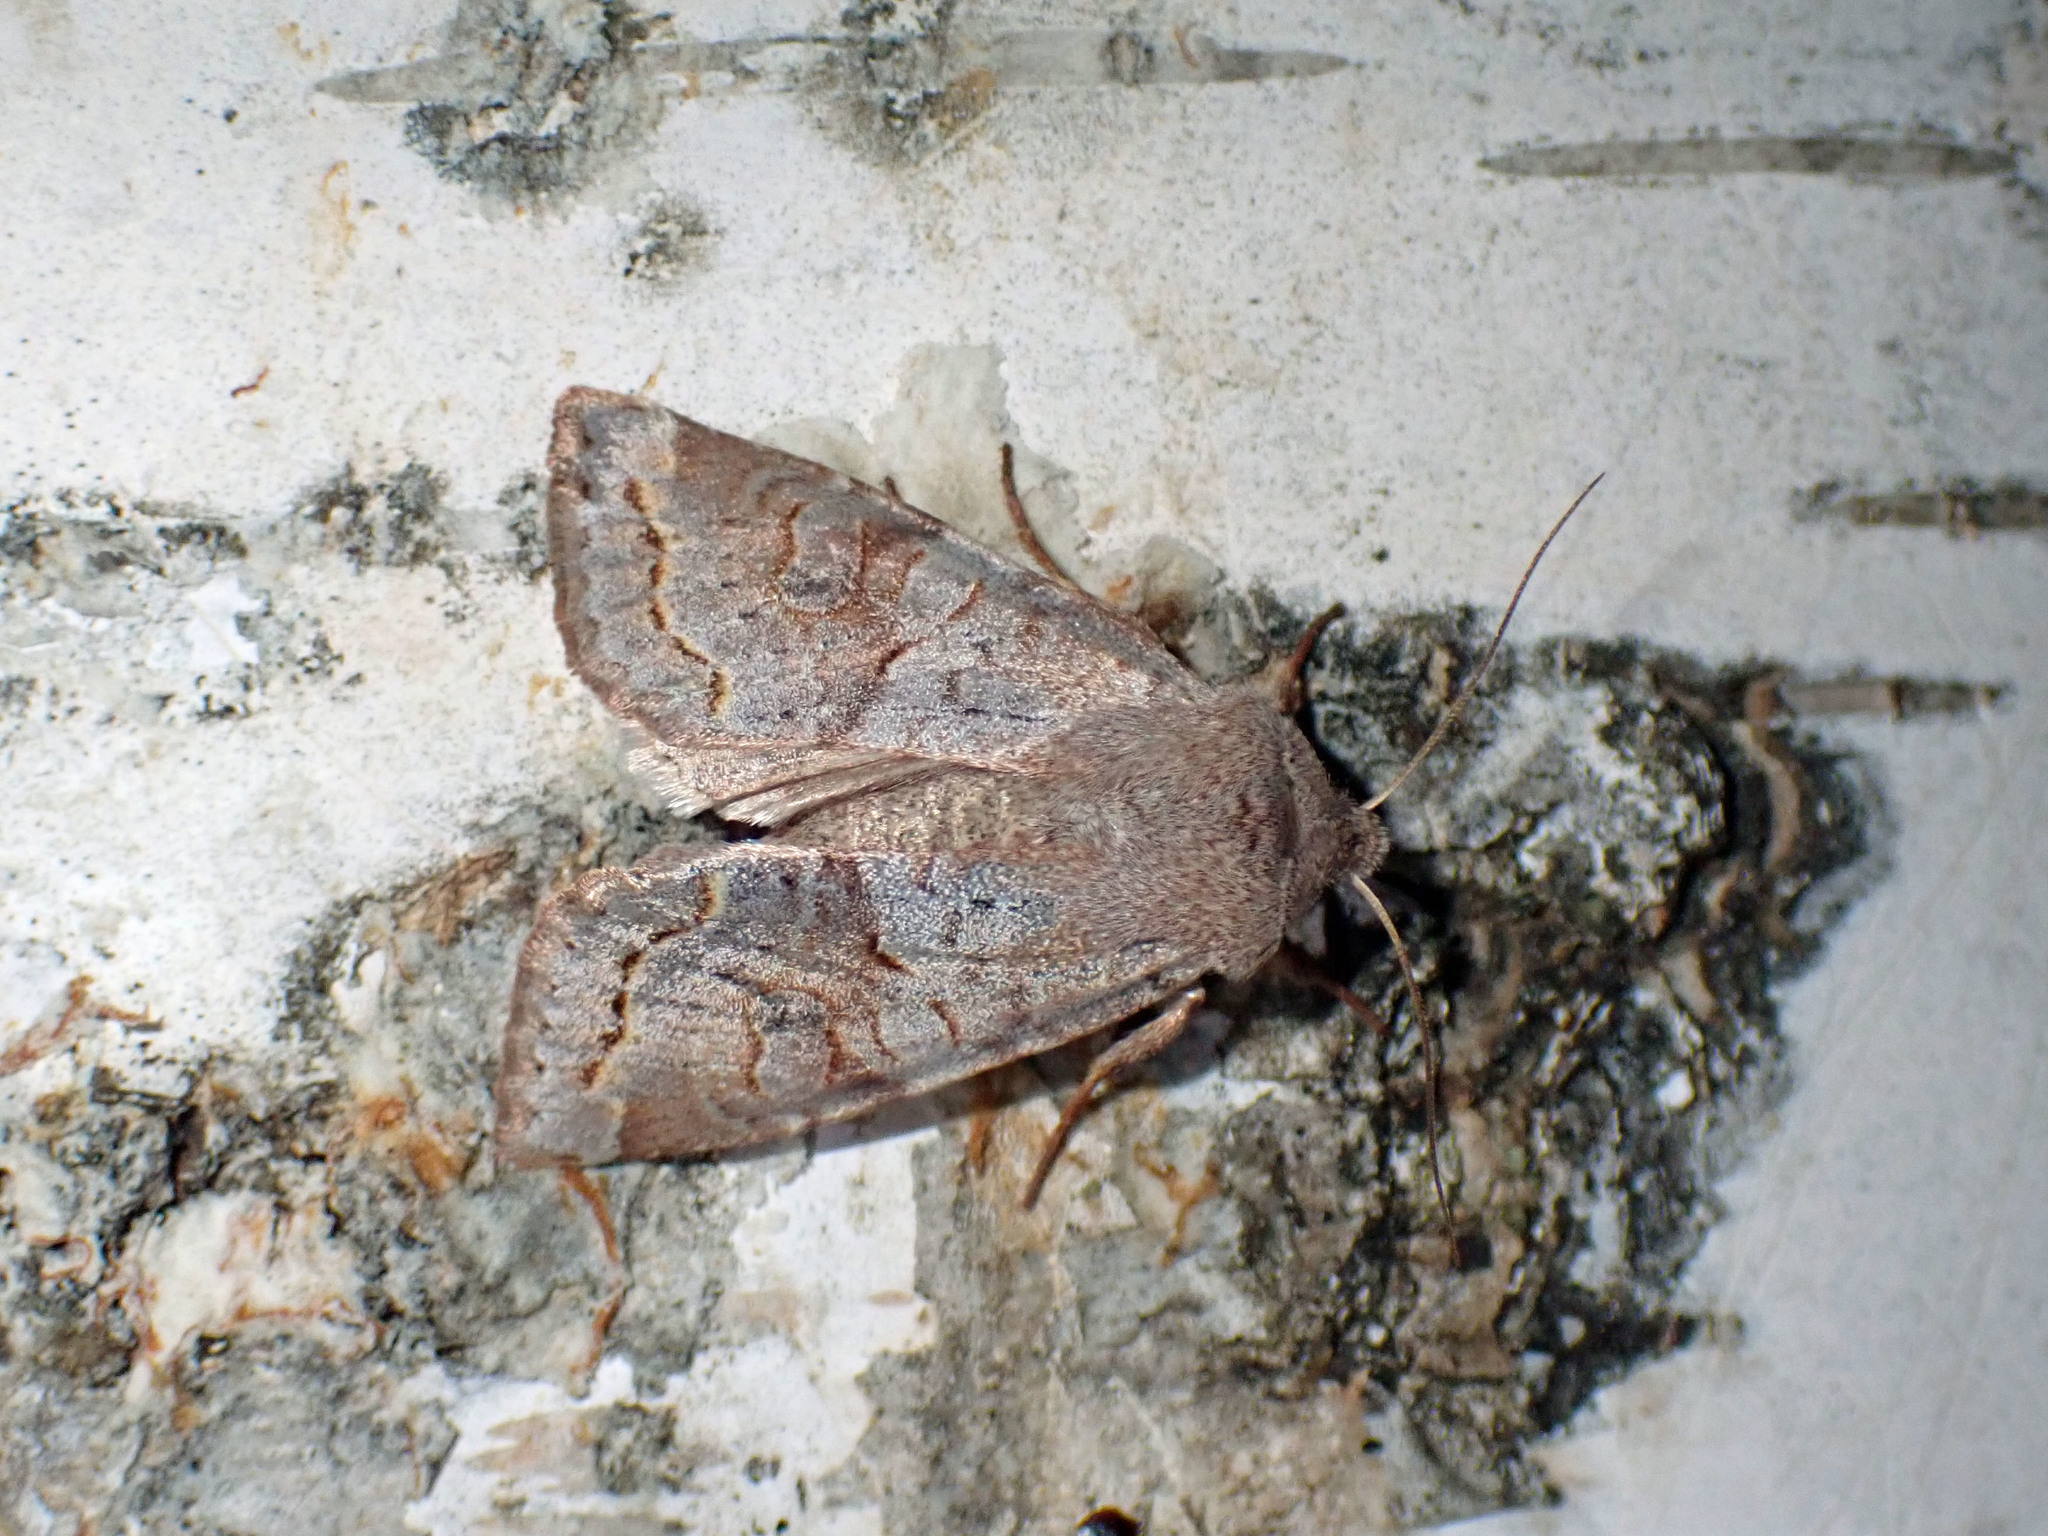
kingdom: Animalia
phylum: Arthropoda
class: Insecta
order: Lepidoptera
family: Noctuidae
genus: Orthosia
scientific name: Orthosia revicta
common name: Rusty whitesided caterpillar
